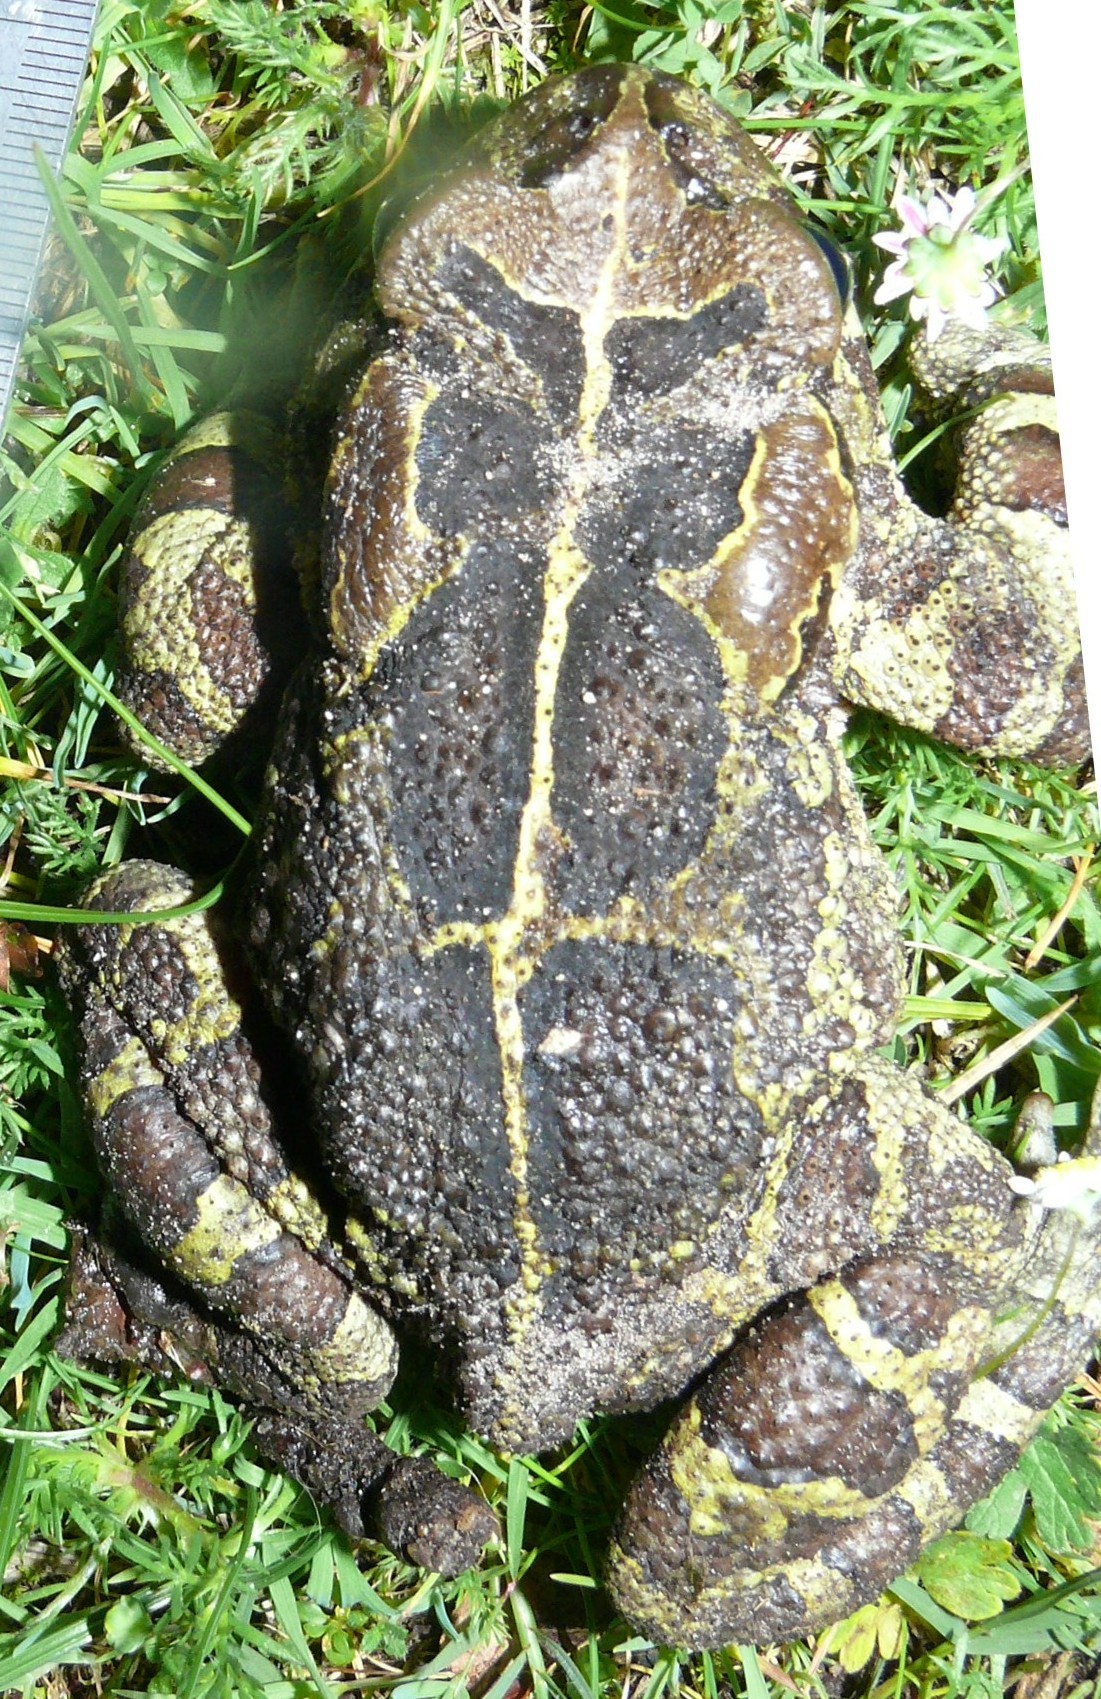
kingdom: Animalia
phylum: Chordata
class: Amphibia
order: Anura
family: Bufonidae
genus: Sclerophrys
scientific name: Sclerophrys pantherina
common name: Panther toad
